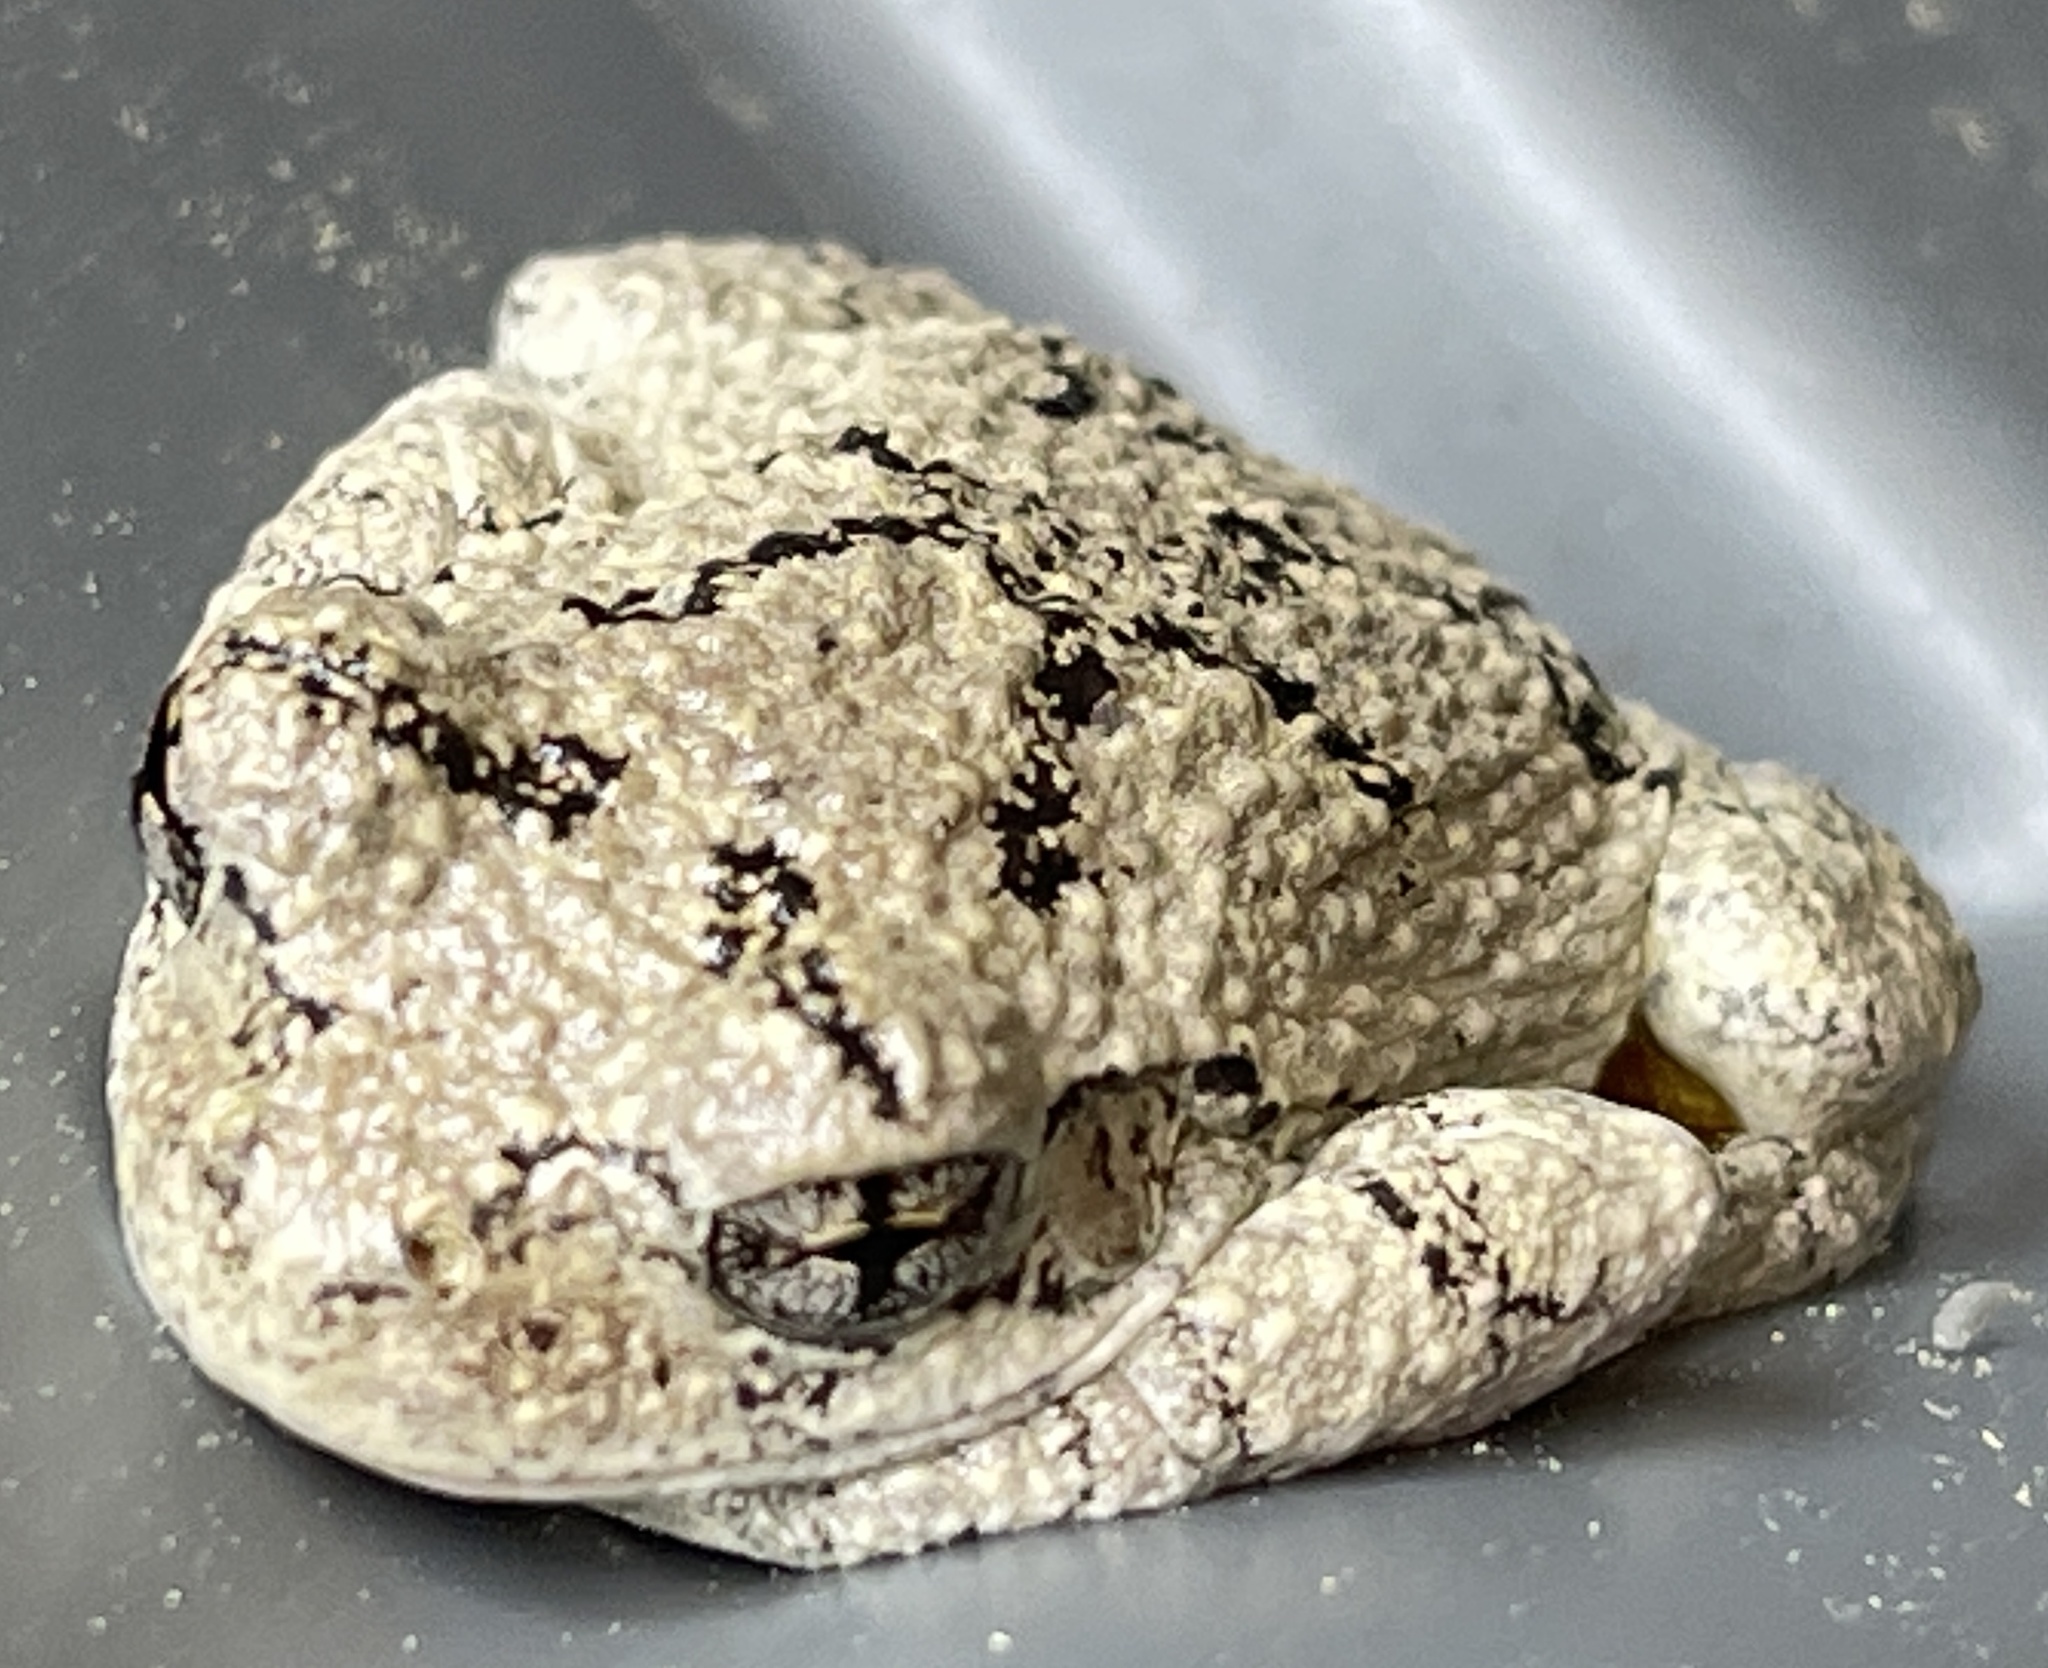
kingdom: Animalia
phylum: Chordata
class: Amphibia
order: Anura
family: Hylidae
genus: Dryophytes
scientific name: Dryophytes chrysoscelis
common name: Cope's gray treefrog
